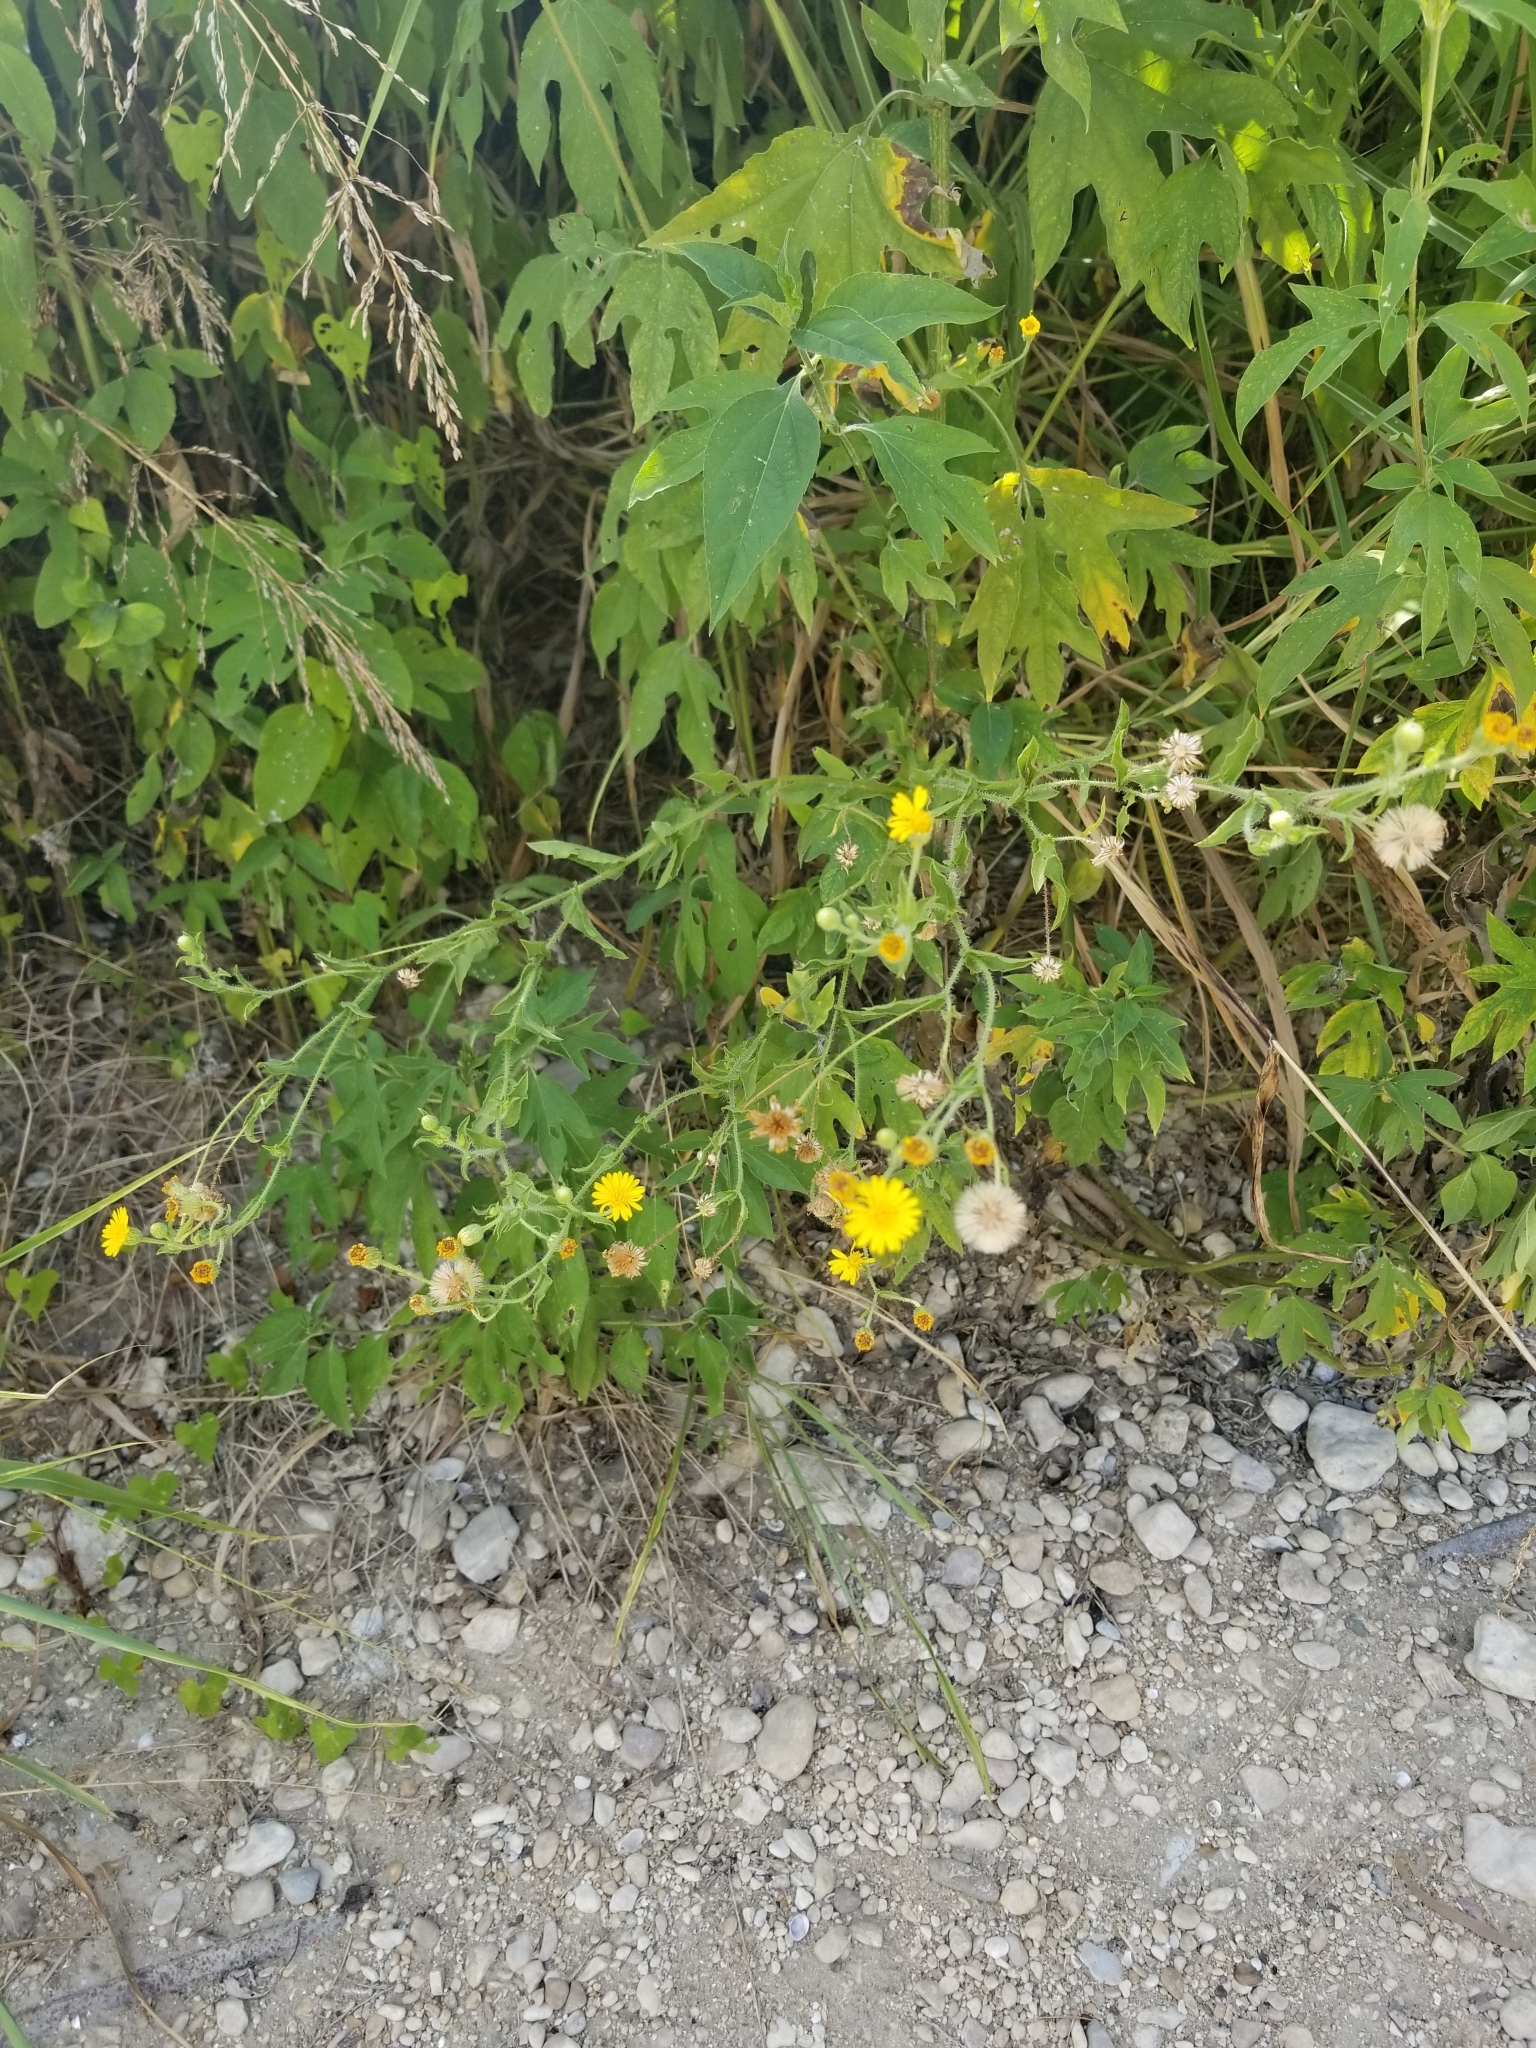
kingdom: Plantae
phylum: Tracheophyta
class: Magnoliopsida
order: Asterales
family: Asteraceae
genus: Heterotheca
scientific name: Heterotheca subaxillaris
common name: Camphorweed
